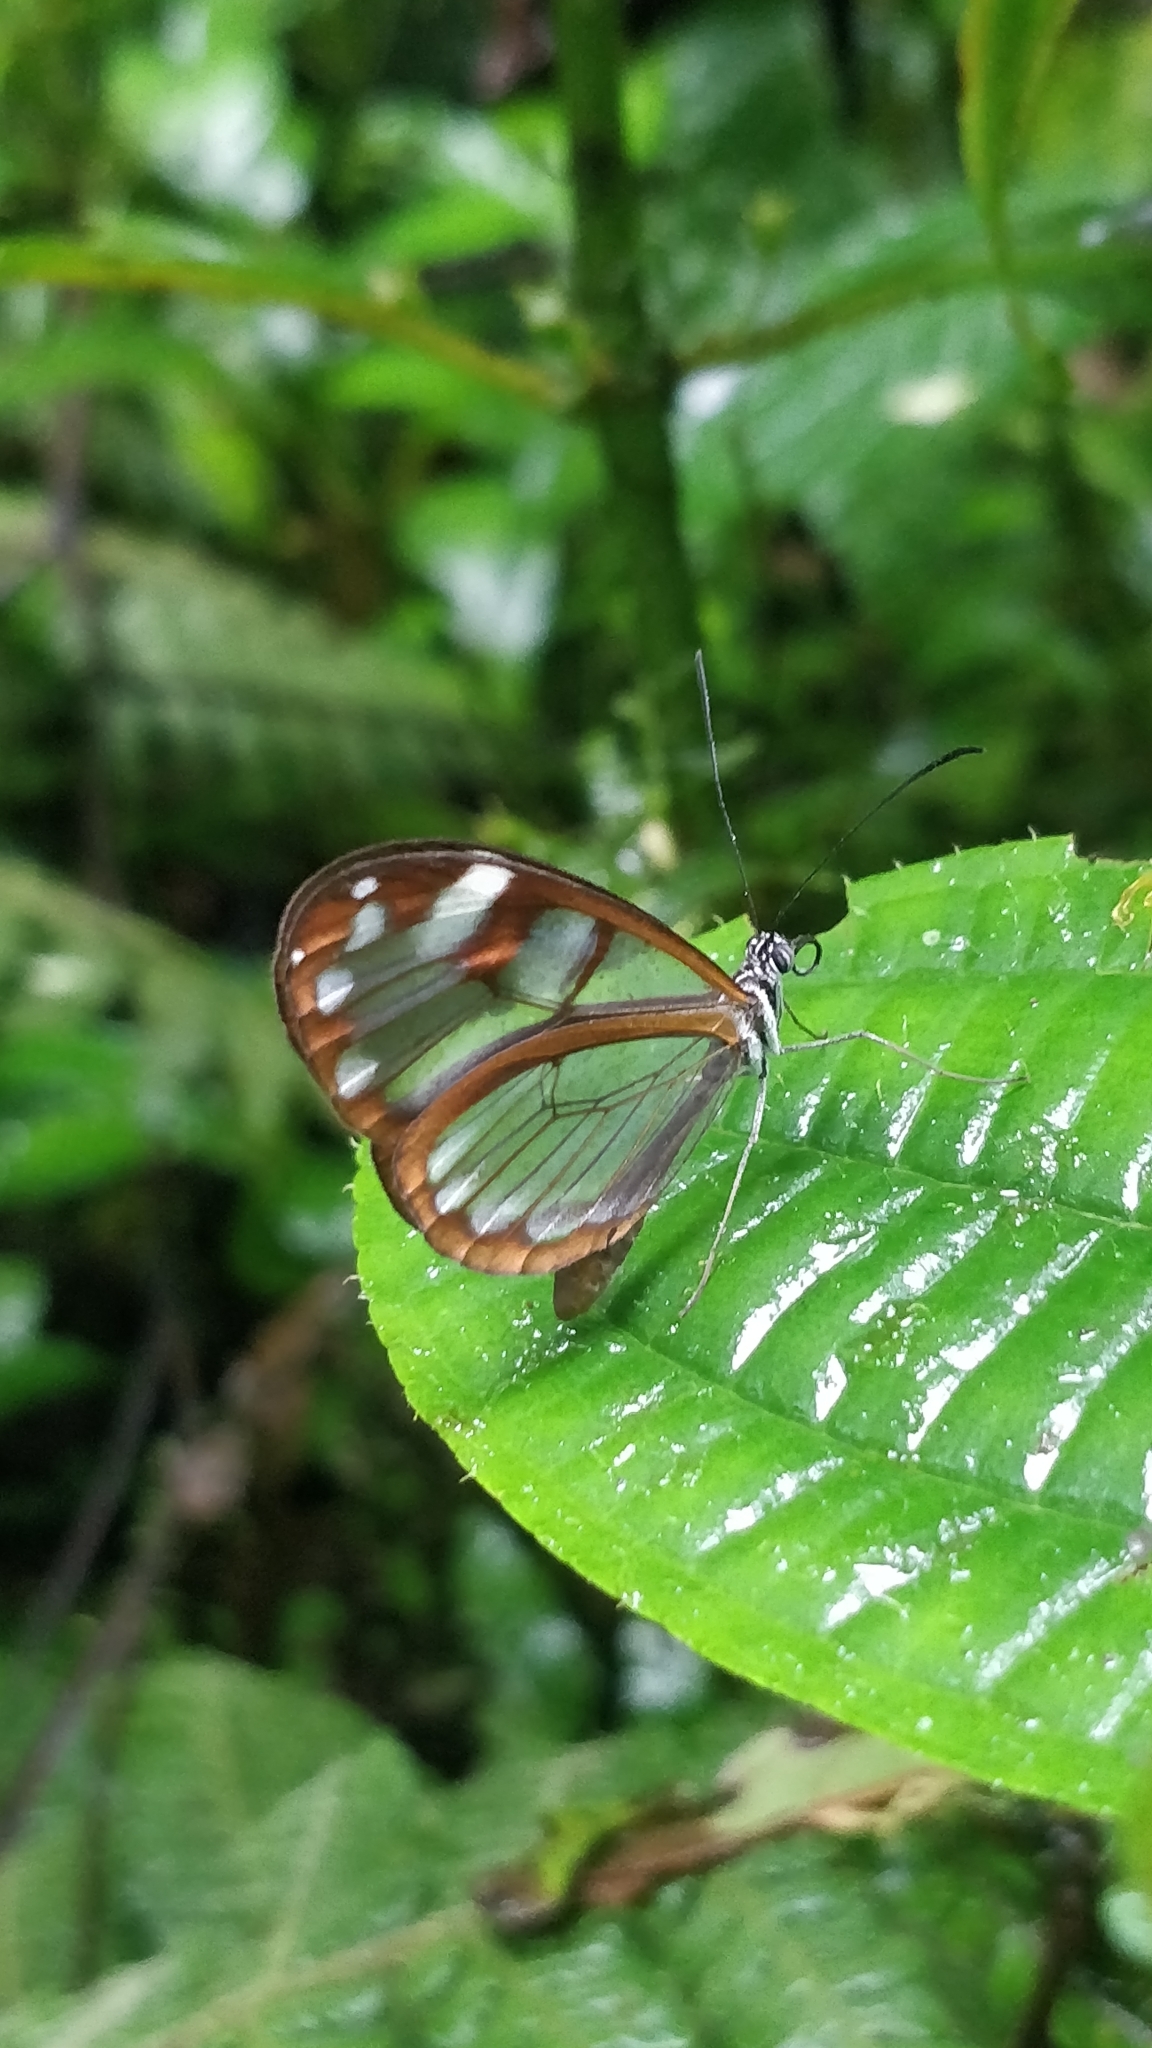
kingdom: Animalia
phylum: Arthropoda
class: Insecta
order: Lepidoptera
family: Nymphalidae
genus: Oleria
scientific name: Oleria vicina
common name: Vicina clearwing
